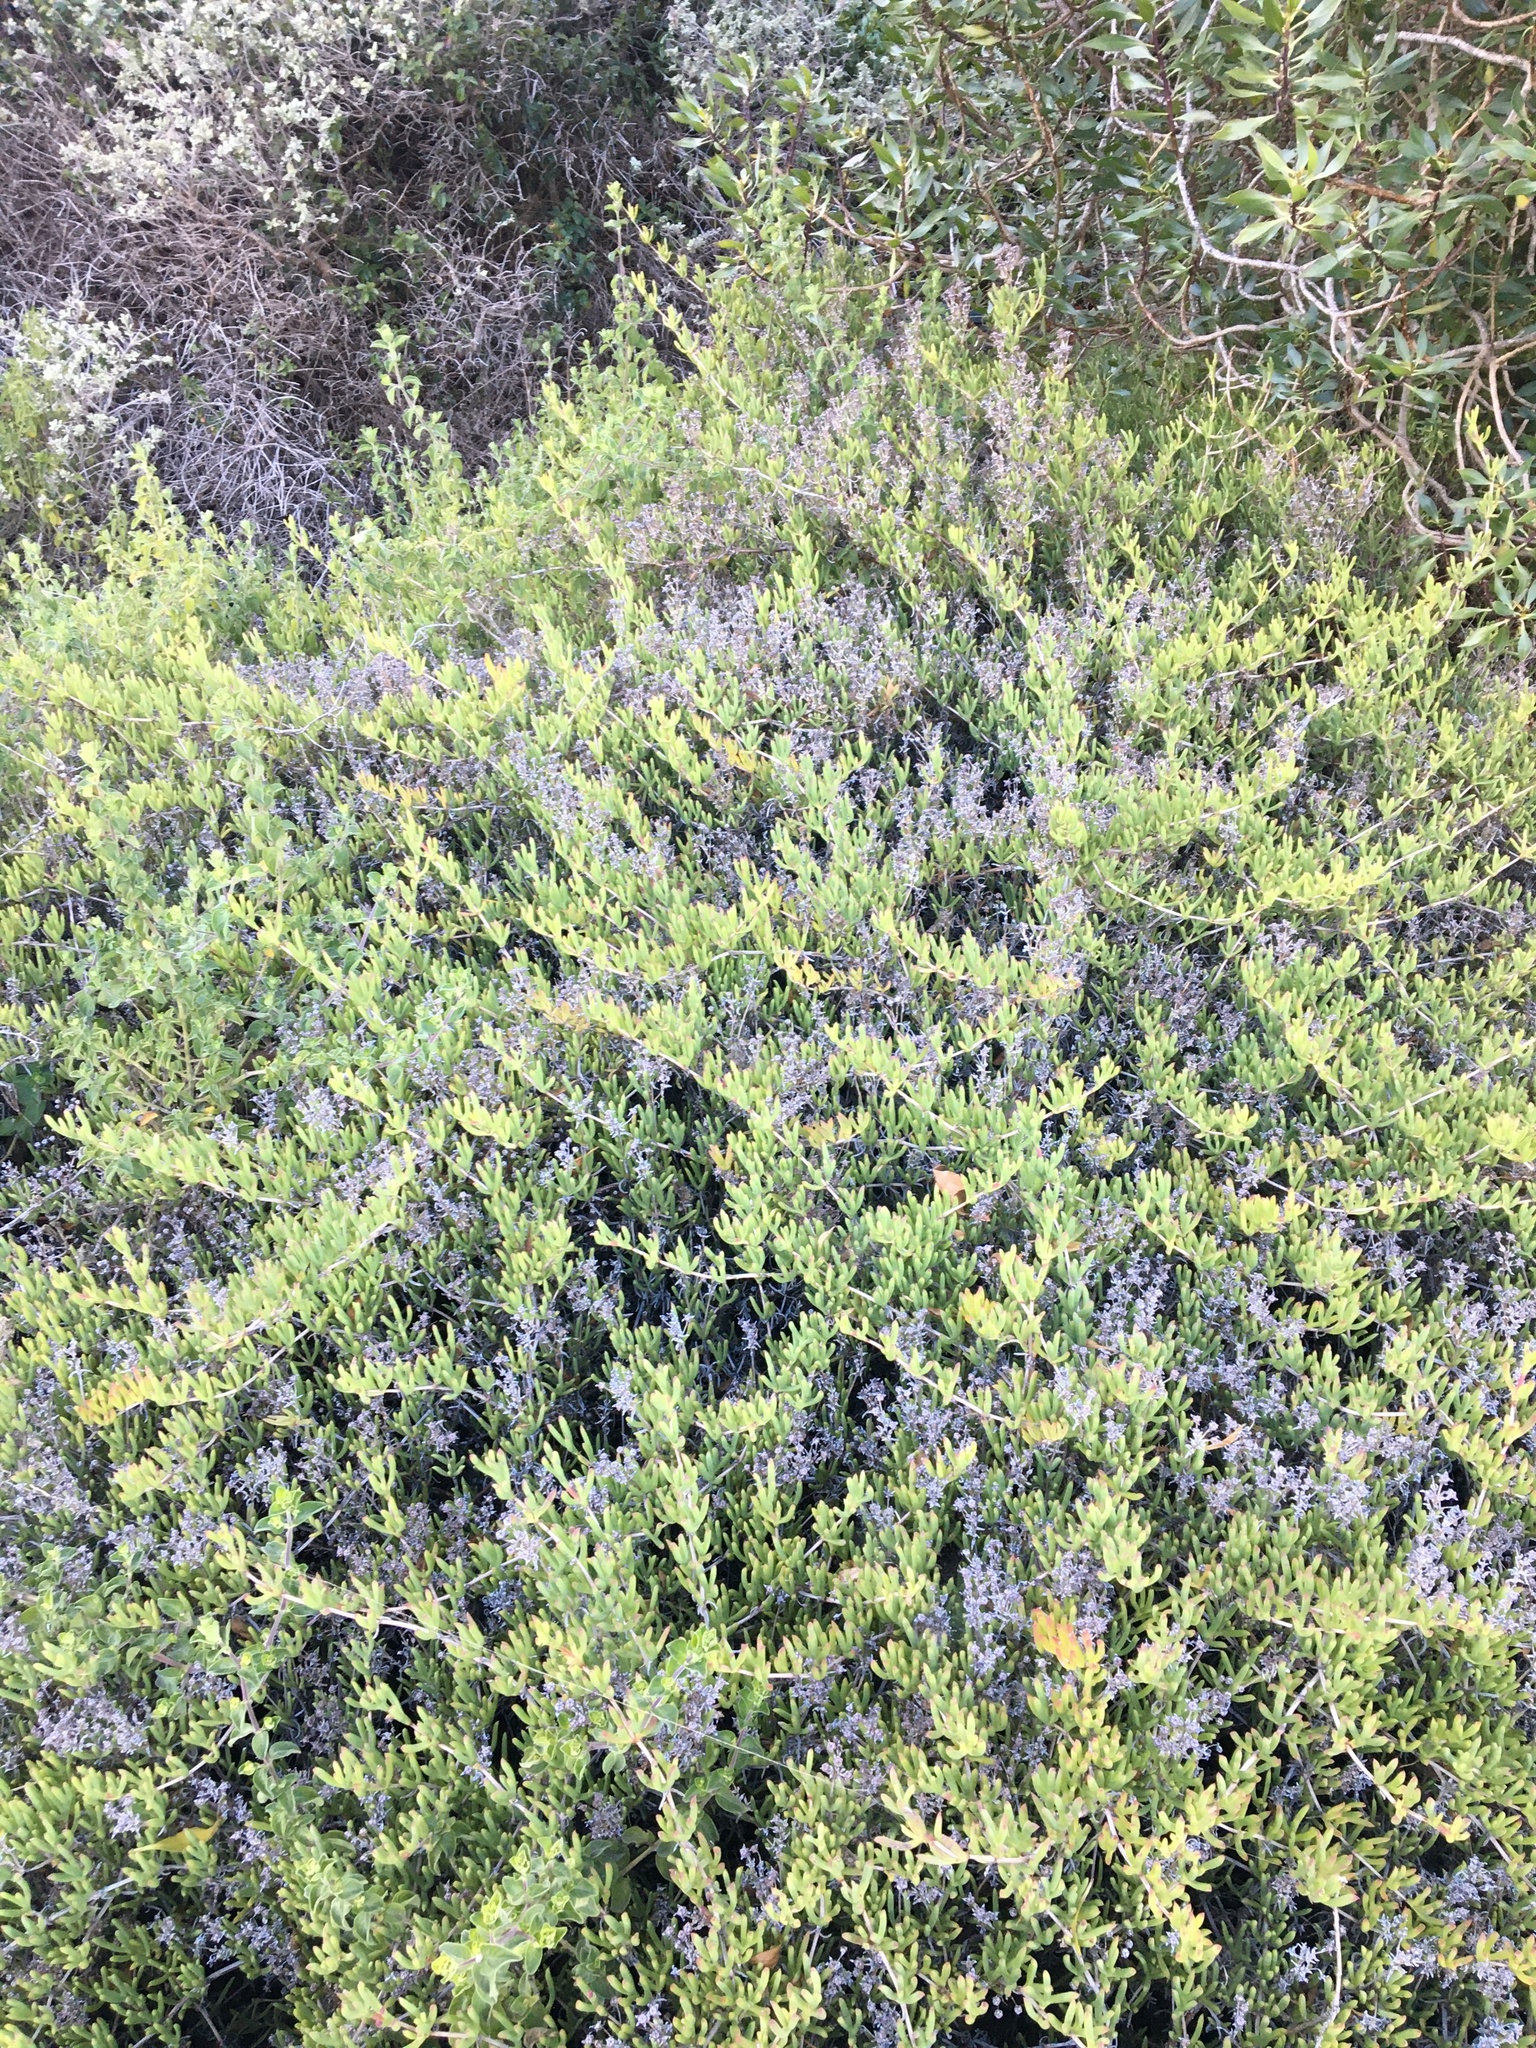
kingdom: Plantae
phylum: Tracheophyta
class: Magnoliopsida
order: Caryophyllales
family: Aizoaceae
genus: Ruschia
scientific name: Ruschia macowanii
